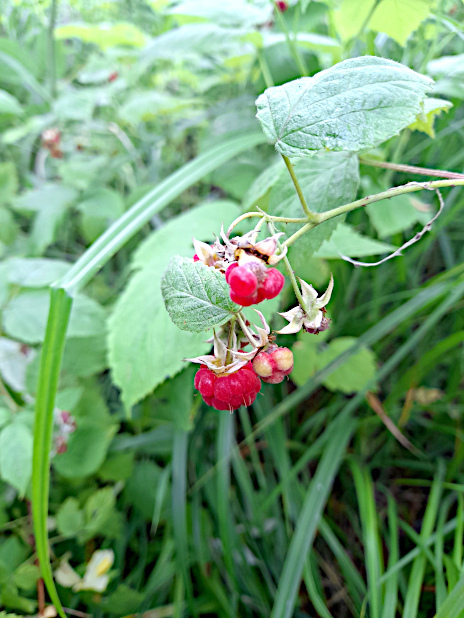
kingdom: Plantae
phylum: Tracheophyta
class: Magnoliopsida
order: Rosales
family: Rosaceae
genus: Rubus
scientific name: Rubus idaeus
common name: Raspberry
